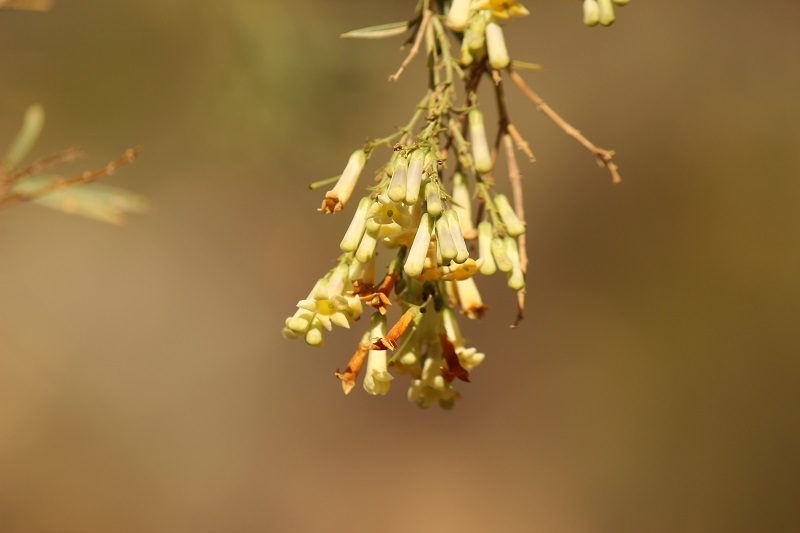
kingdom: Plantae
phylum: Tracheophyta
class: Magnoliopsida
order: Lamiales
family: Scrophulariaceae
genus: Freylinia
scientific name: Freylinia lanceolata
